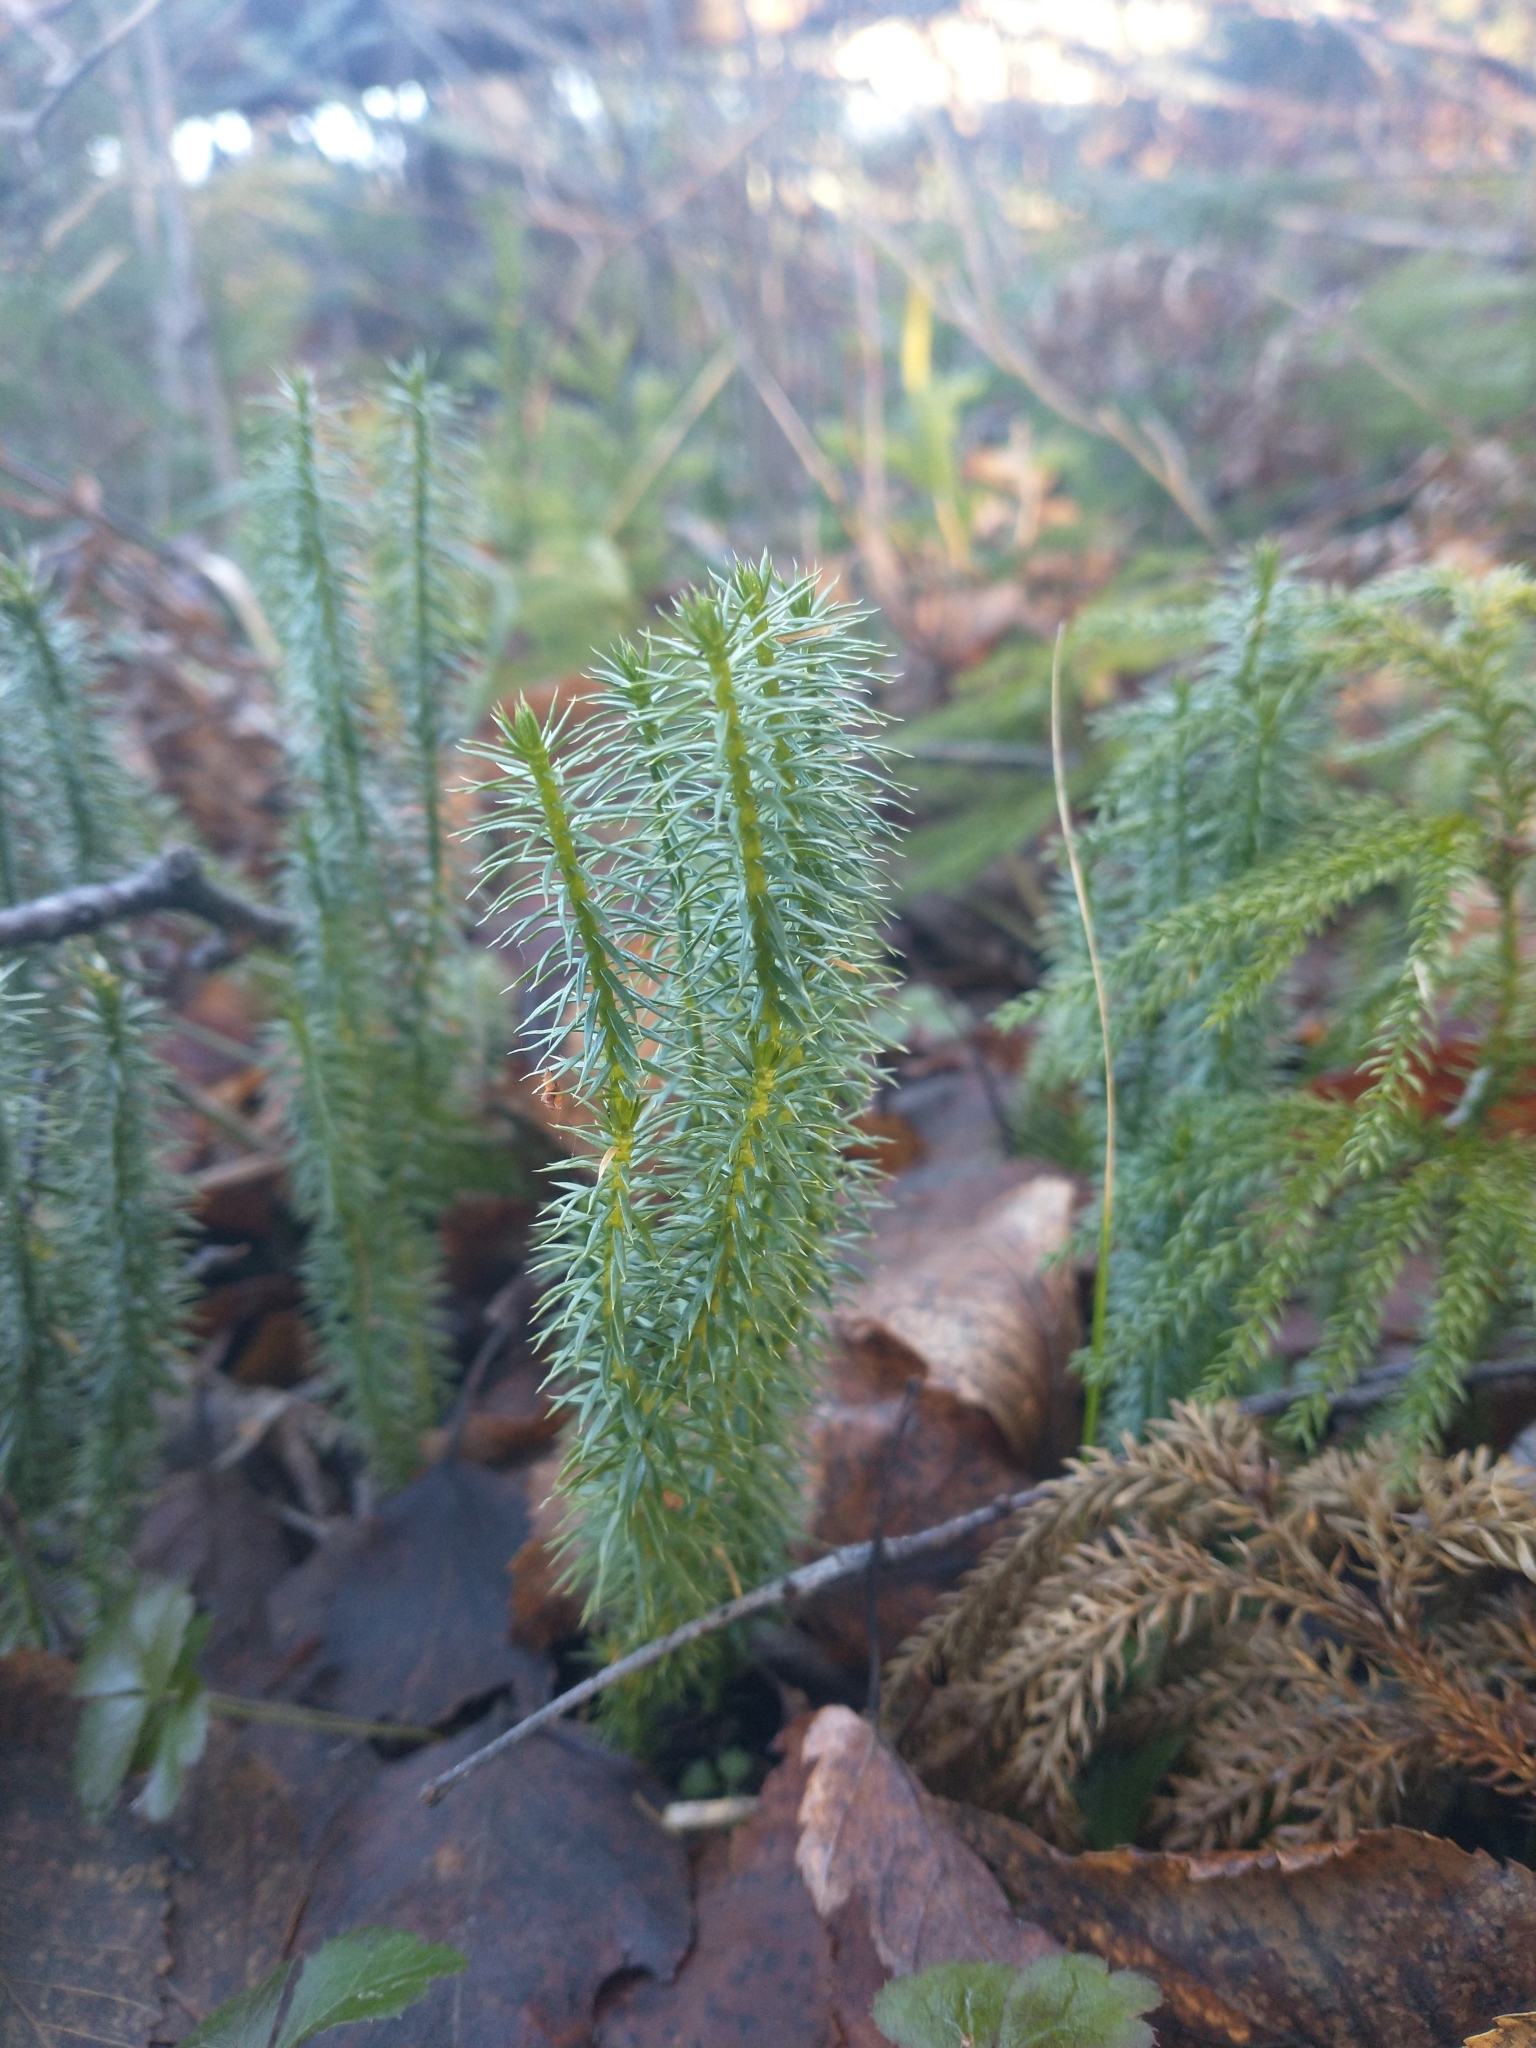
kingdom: Plantae
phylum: Tracheophyta
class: Lycopodiopsida
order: Lycopodiales
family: Lycopodiaceae
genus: Spinulum
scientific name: Spinulum annotinum
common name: Interrupted club-moss
